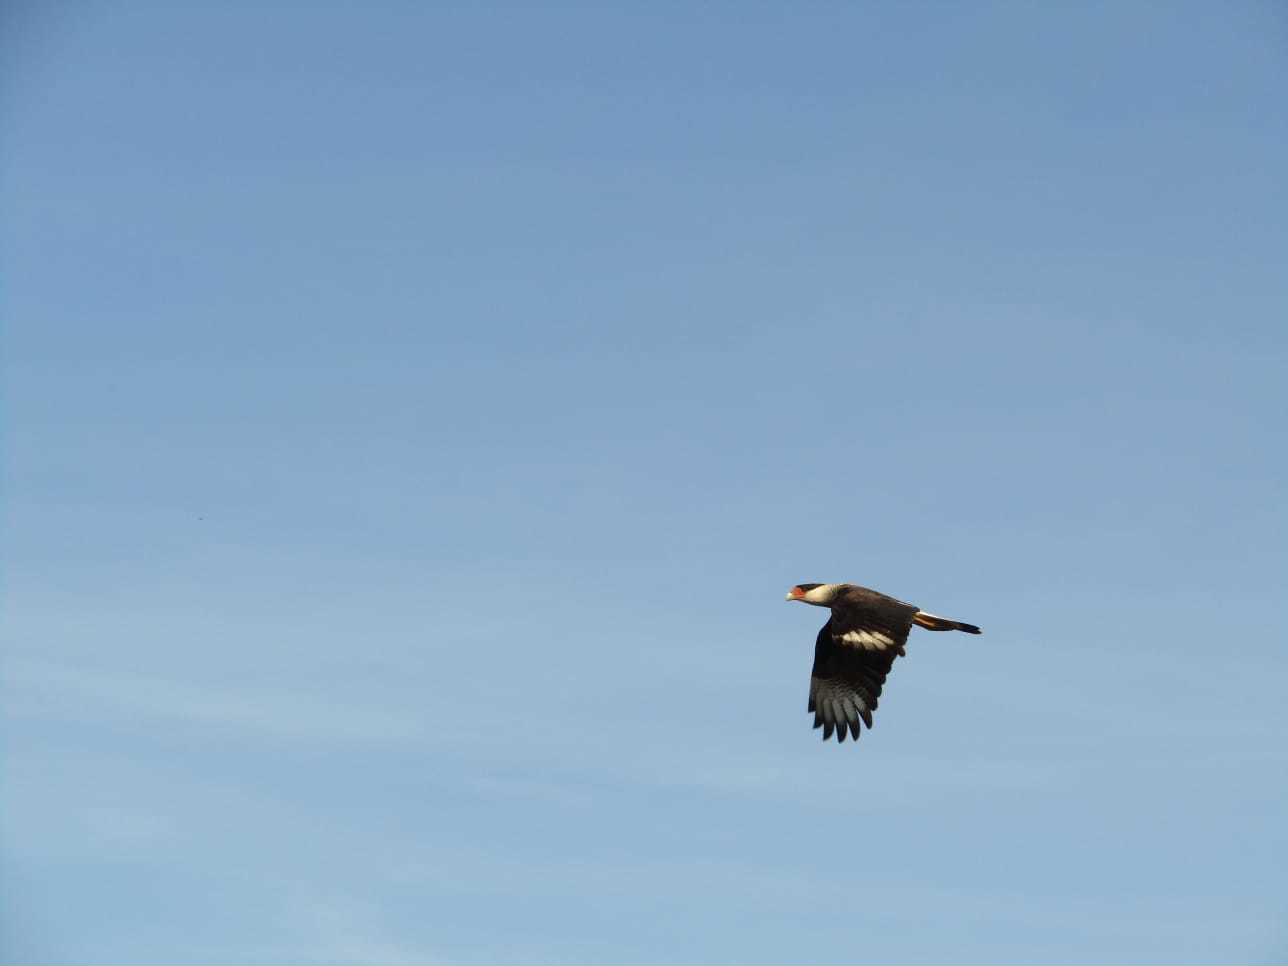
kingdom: Animalia
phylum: Chordata
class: Aves
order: Falconiformes
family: Falconidae
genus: Caracara
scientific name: Caracara plancus
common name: Southern caracara
